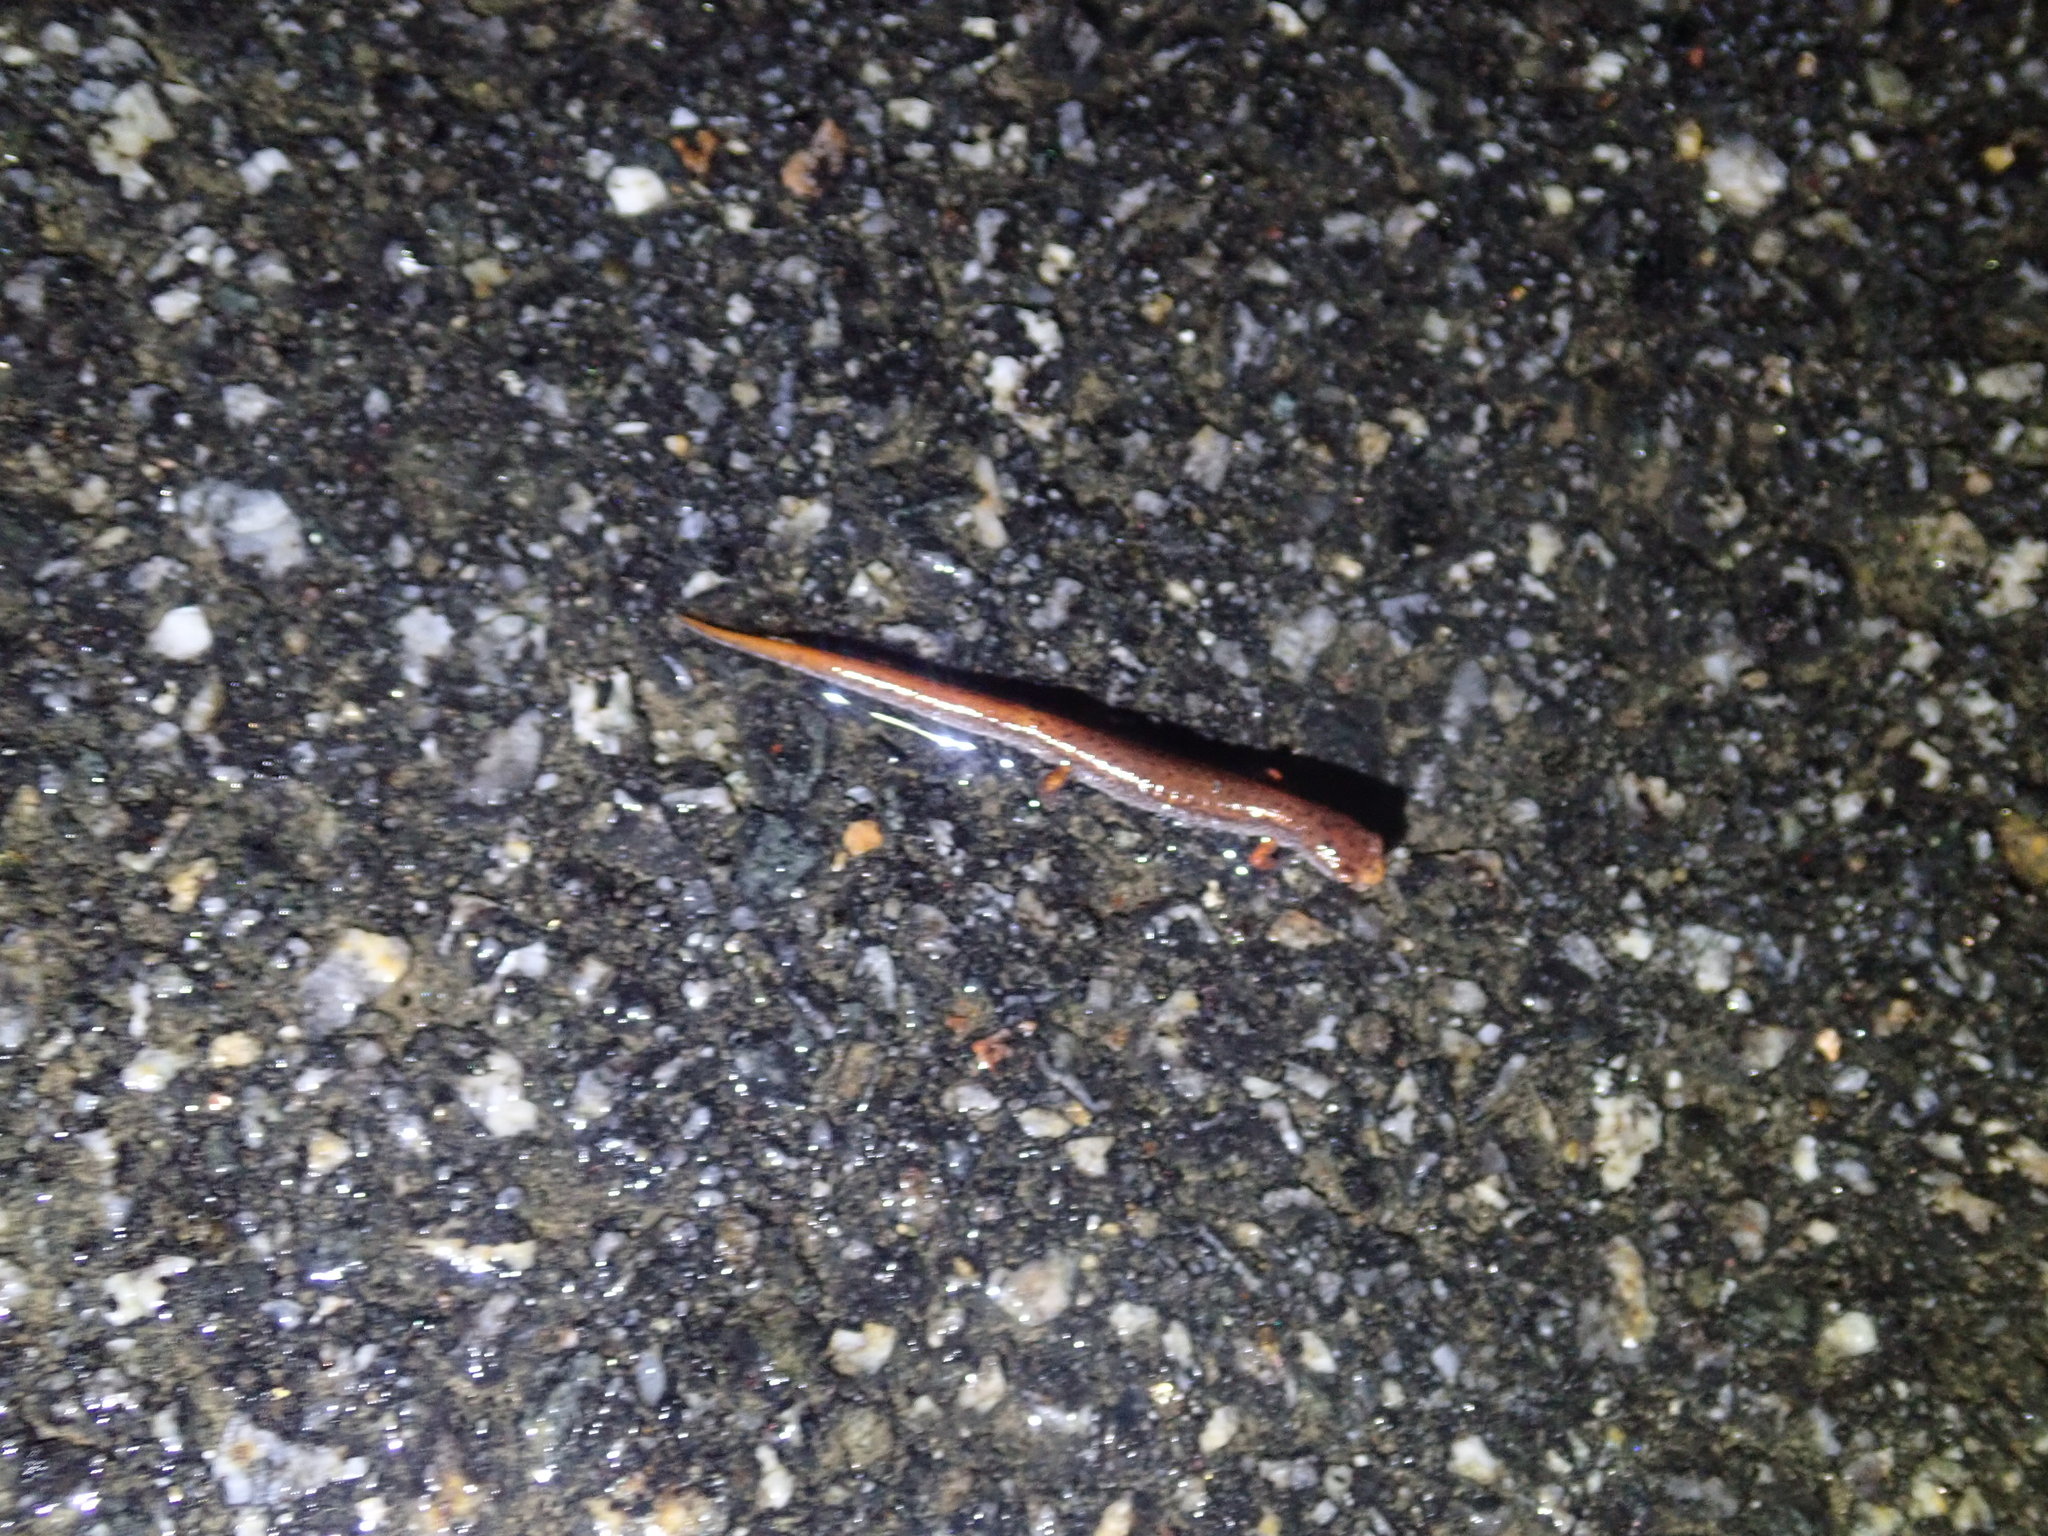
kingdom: Animalia
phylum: Chordata
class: Amphibia
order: Caudata
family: Plethodontidae
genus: Hemidactylium
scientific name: Hemidactylium scutatum
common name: Four-toed salamander
